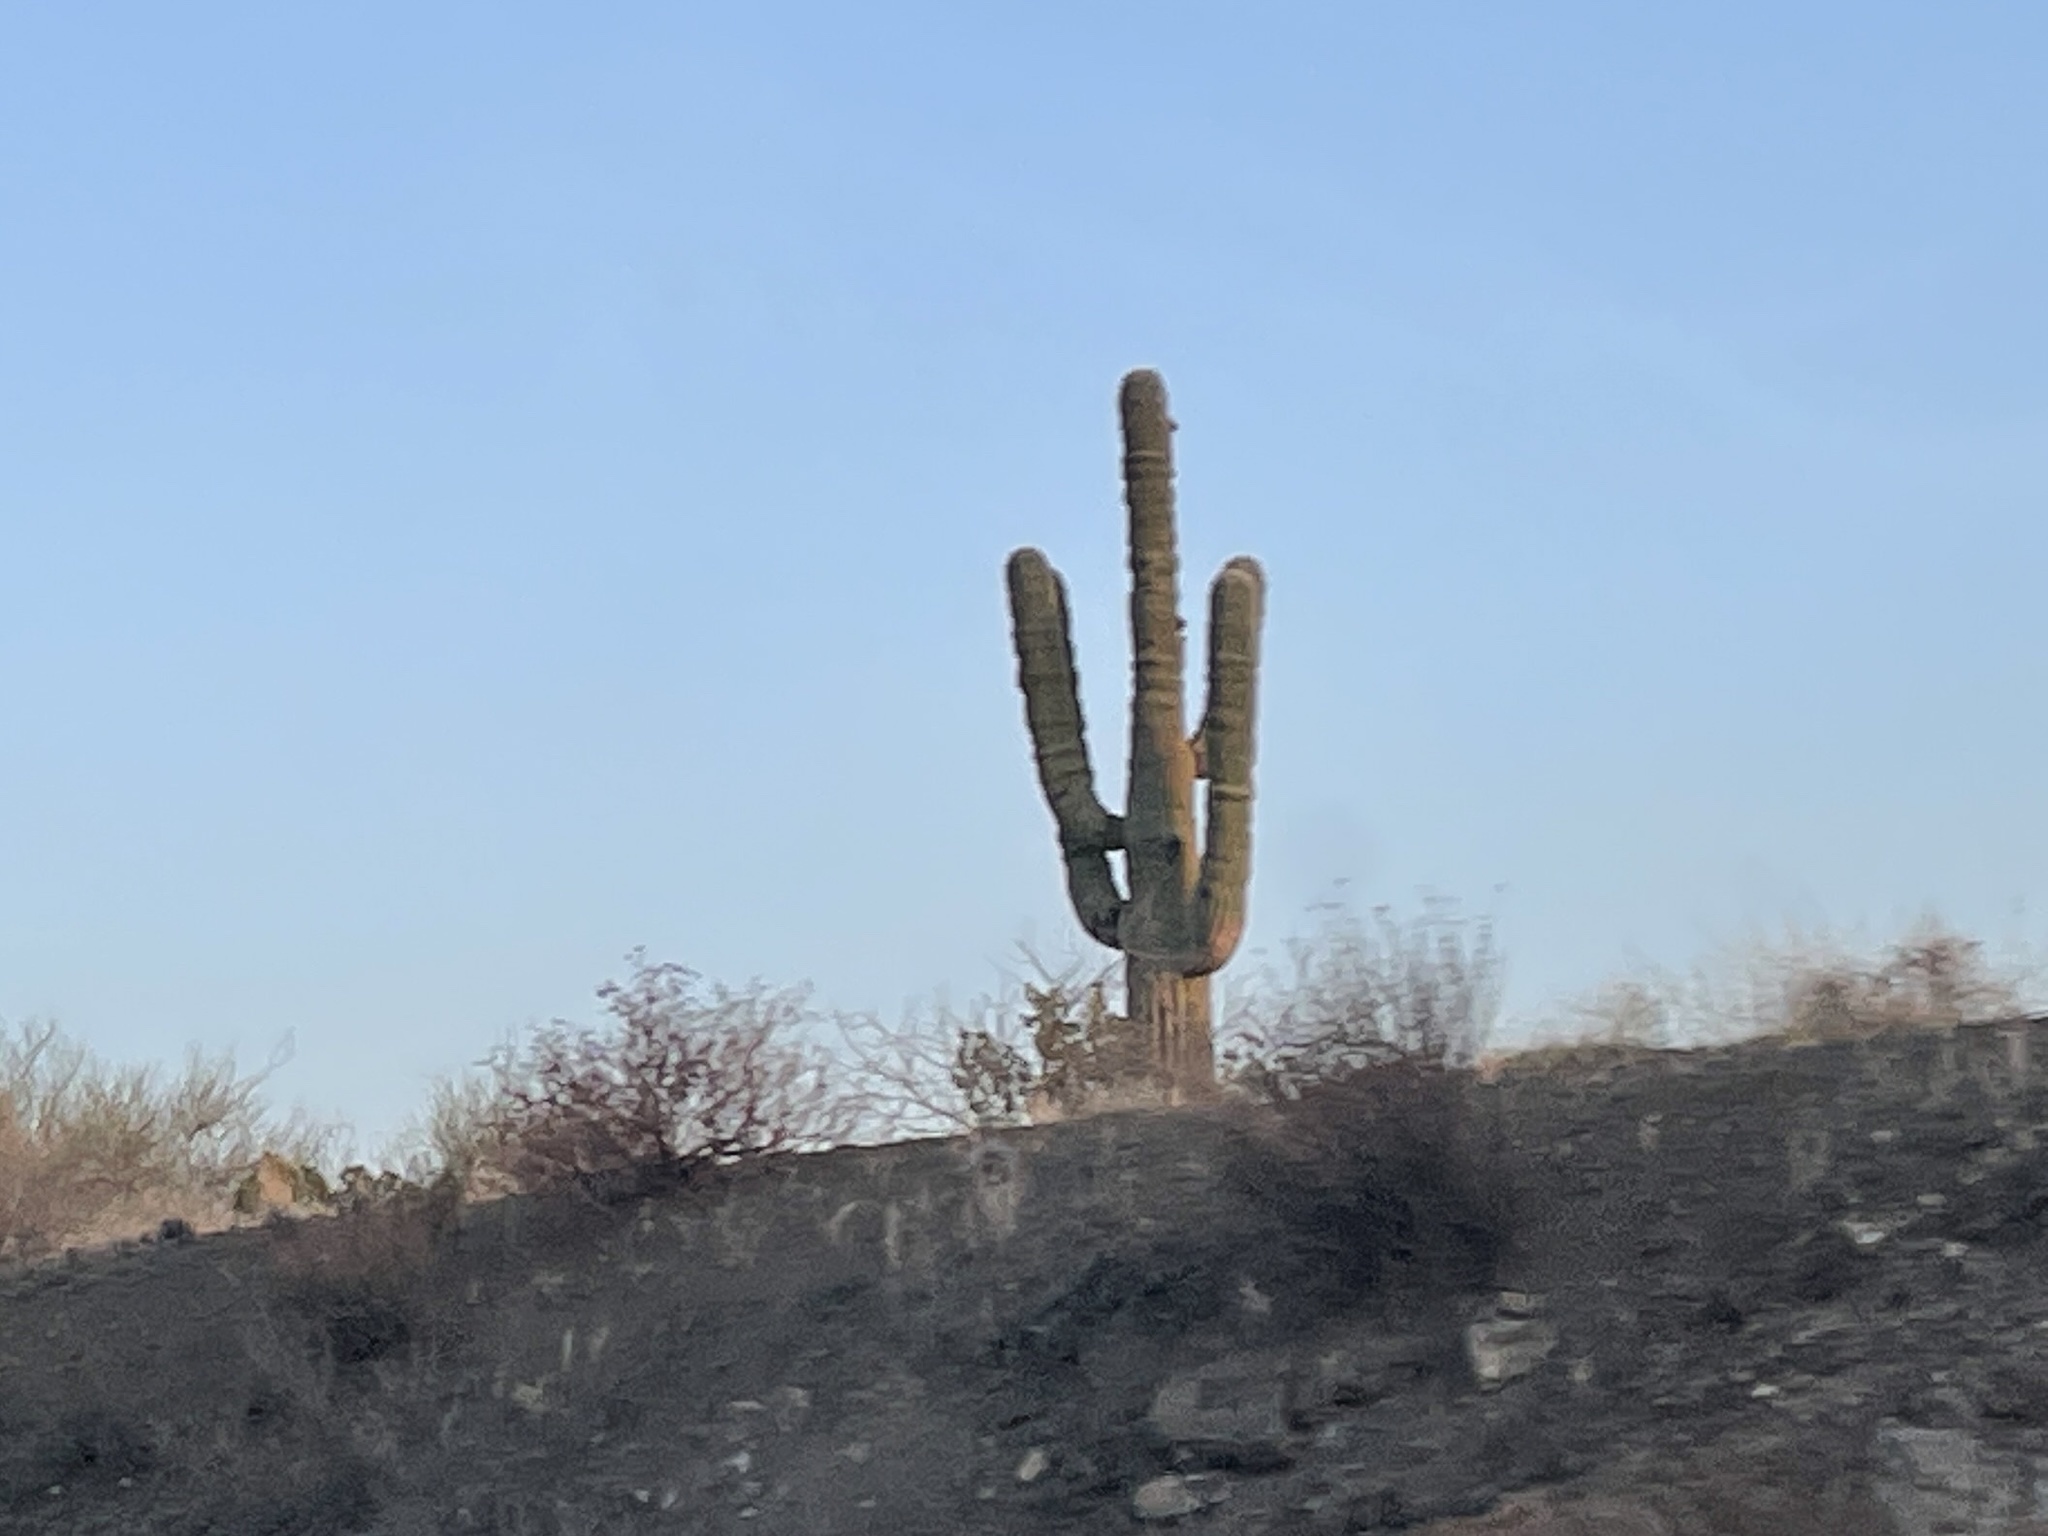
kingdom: Plantae
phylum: Tracheophyta
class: Magnoliopsida
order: Caryophyllales
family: Cactaceae
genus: Carnegiea
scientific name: Carnegiea gigantea
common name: Saguaro
